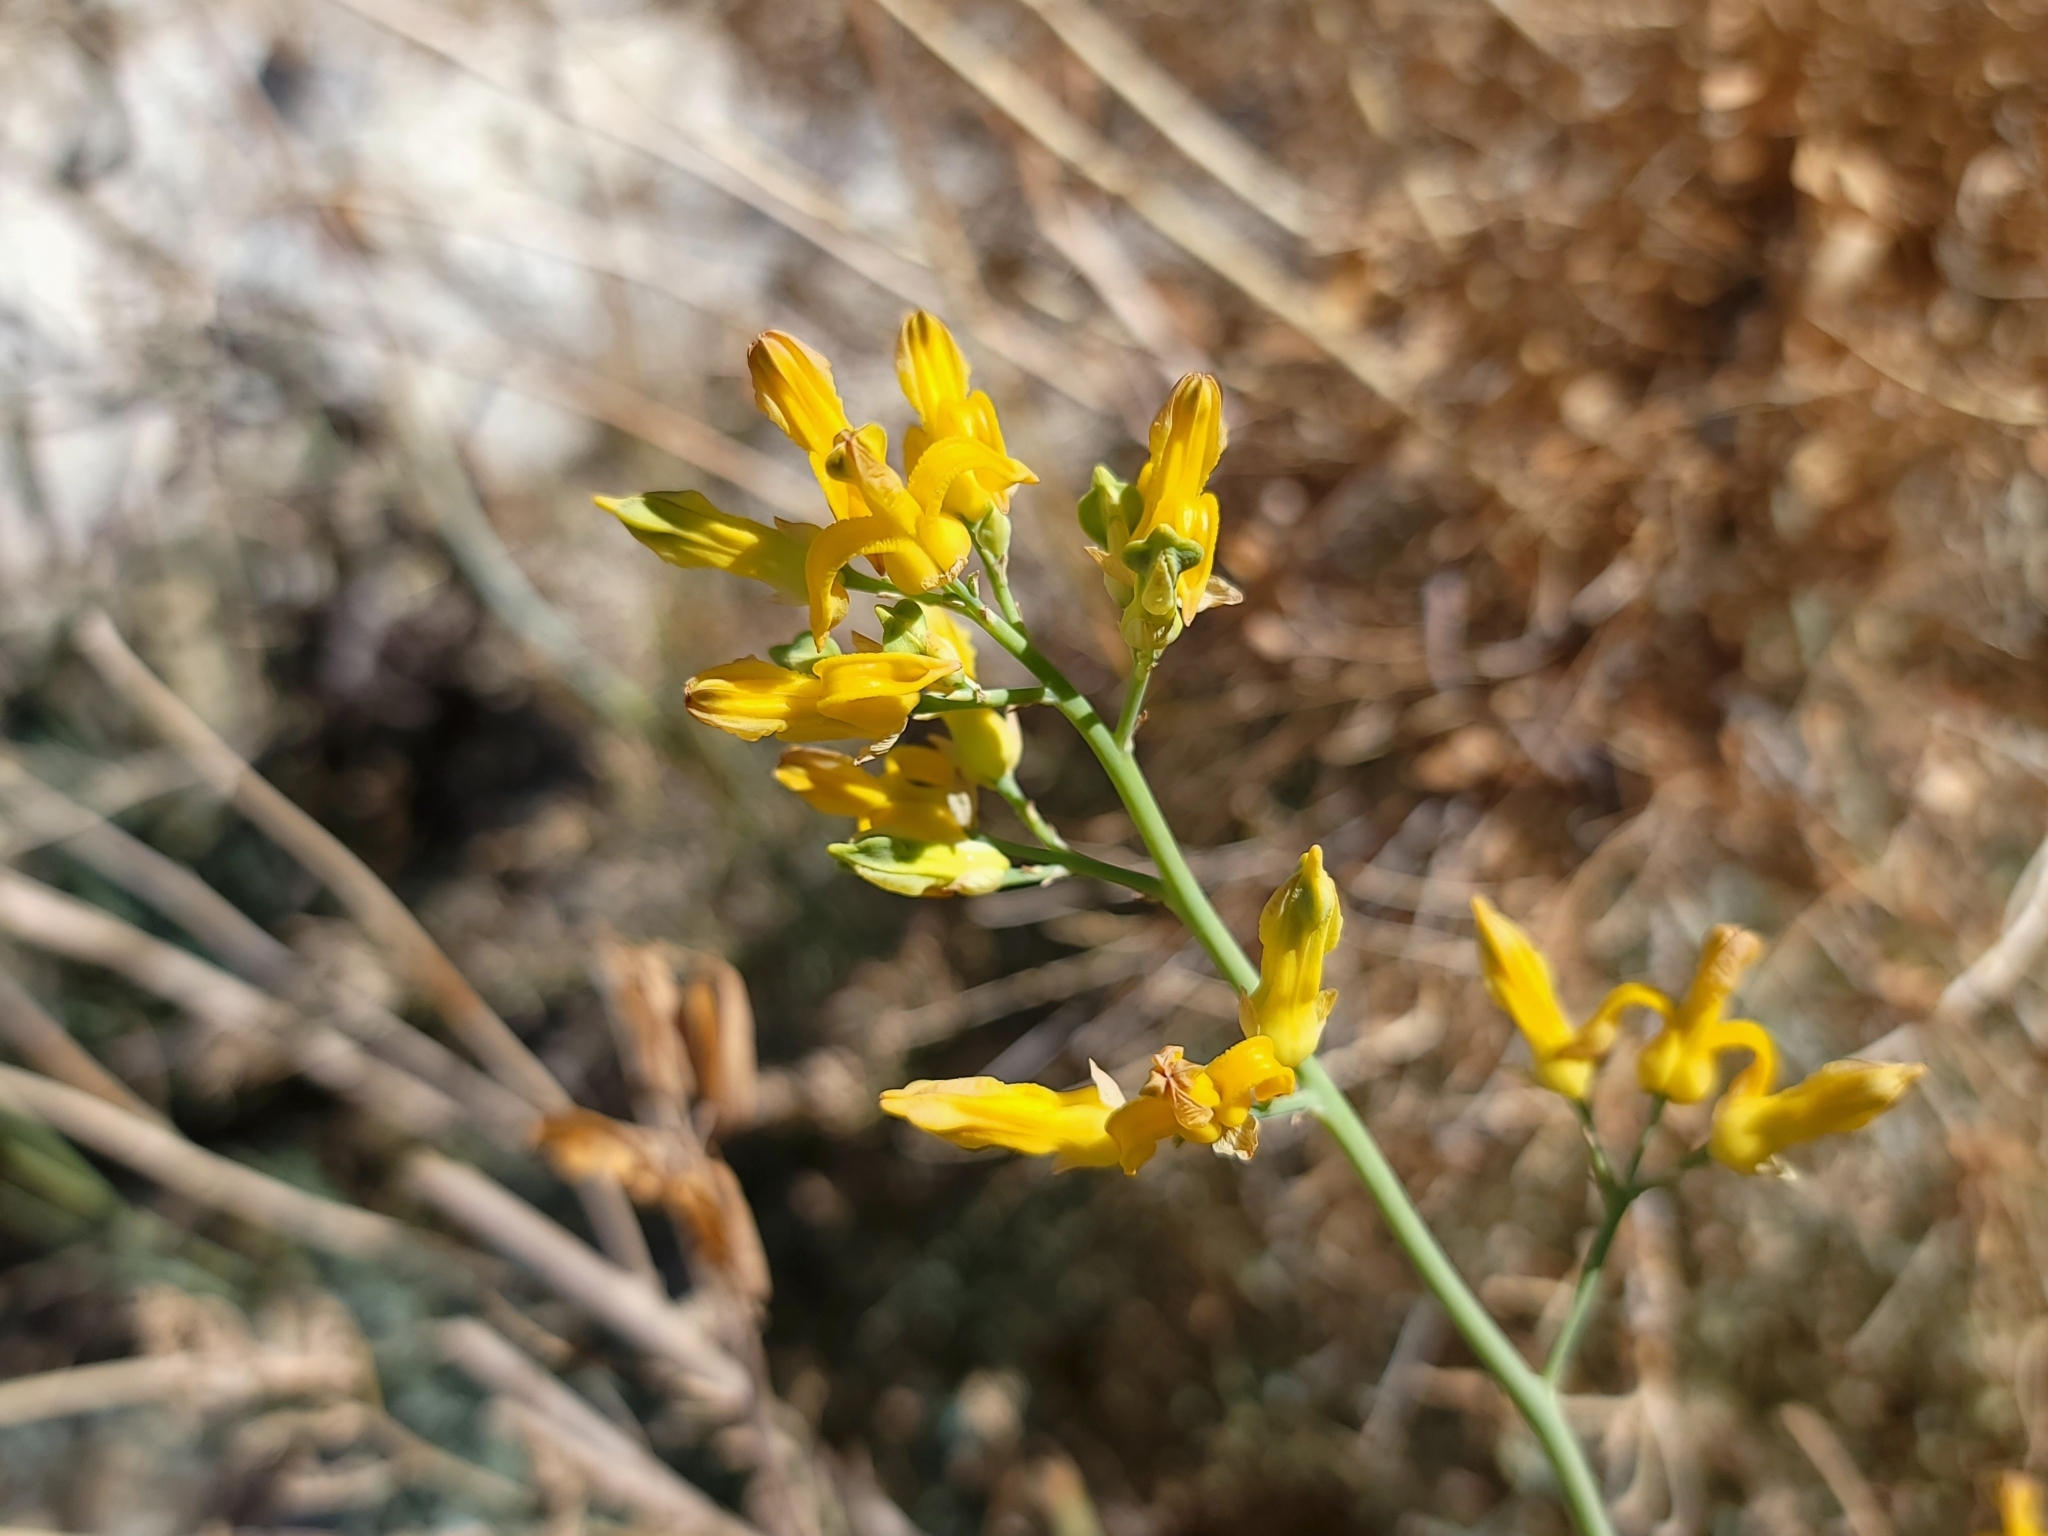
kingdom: Plantae
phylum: Tracheophyta
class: Magnoliopsida
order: Ranunculales
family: Papaveraceae
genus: Ehrendorferia
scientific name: Ehrendorferia chrysantha
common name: Golden eardrops
